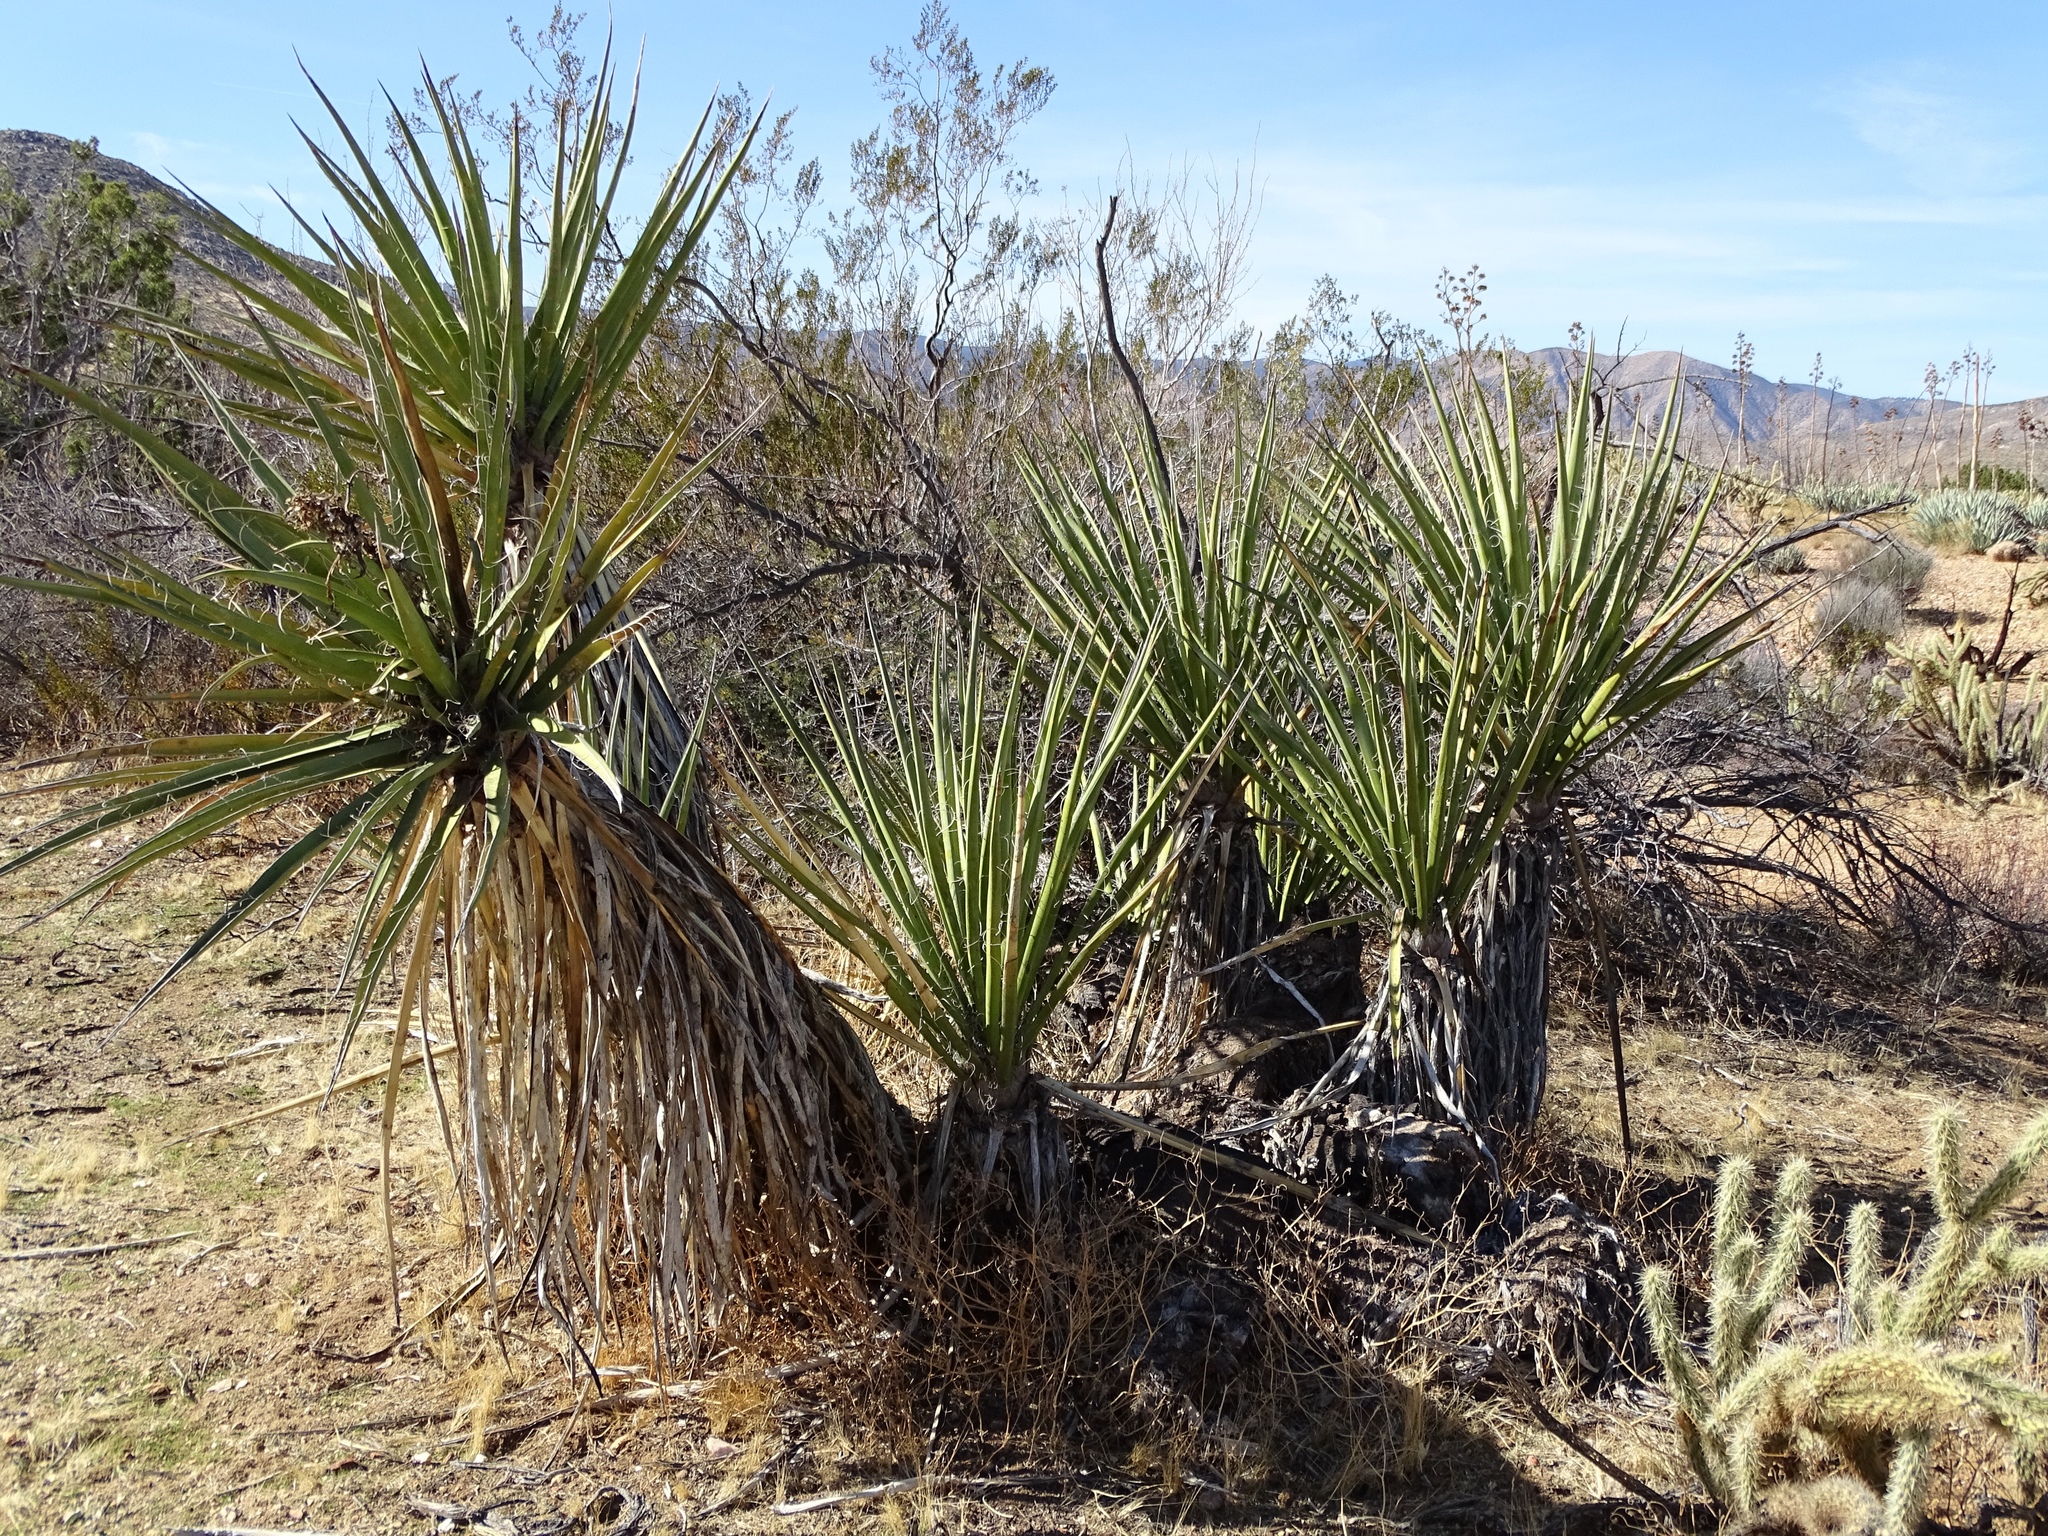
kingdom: Plantae
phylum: Tracheophyta
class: Liliopsida
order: Asparagales
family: Asparagaceae
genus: Yucca
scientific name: Yucca schidigera
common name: Mojave yucca
